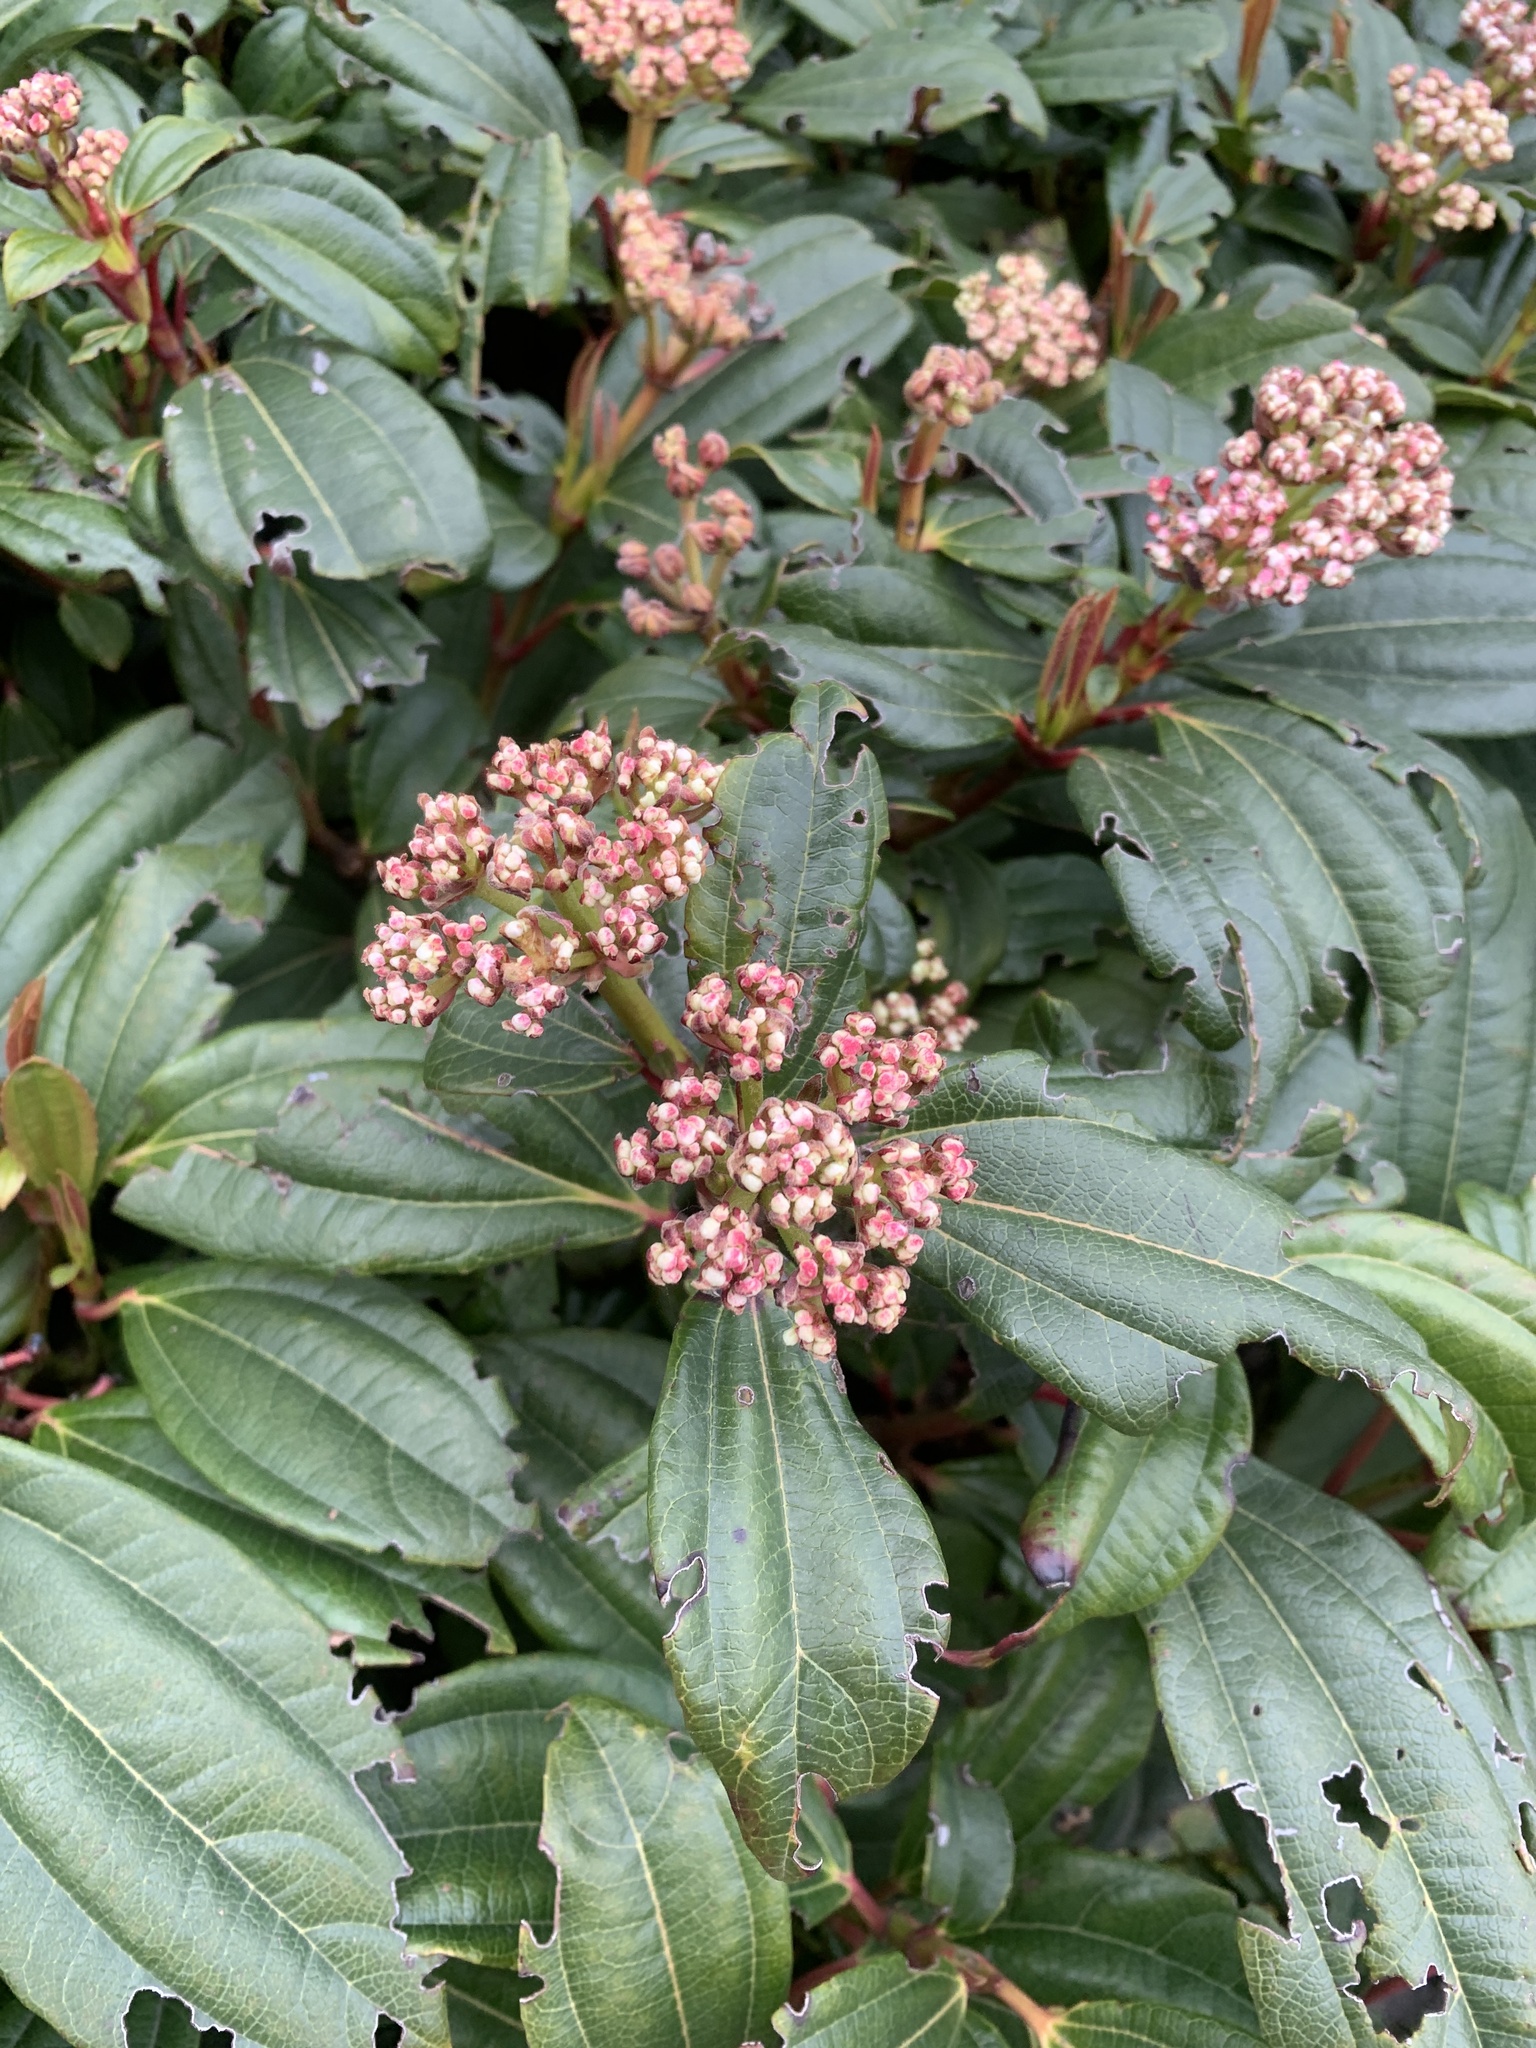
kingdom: Plantae
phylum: Tracheophyta
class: Magnoliopsida
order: Dipsacales
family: Viburnaceae
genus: Viburnum
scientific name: Viburnum davidi
